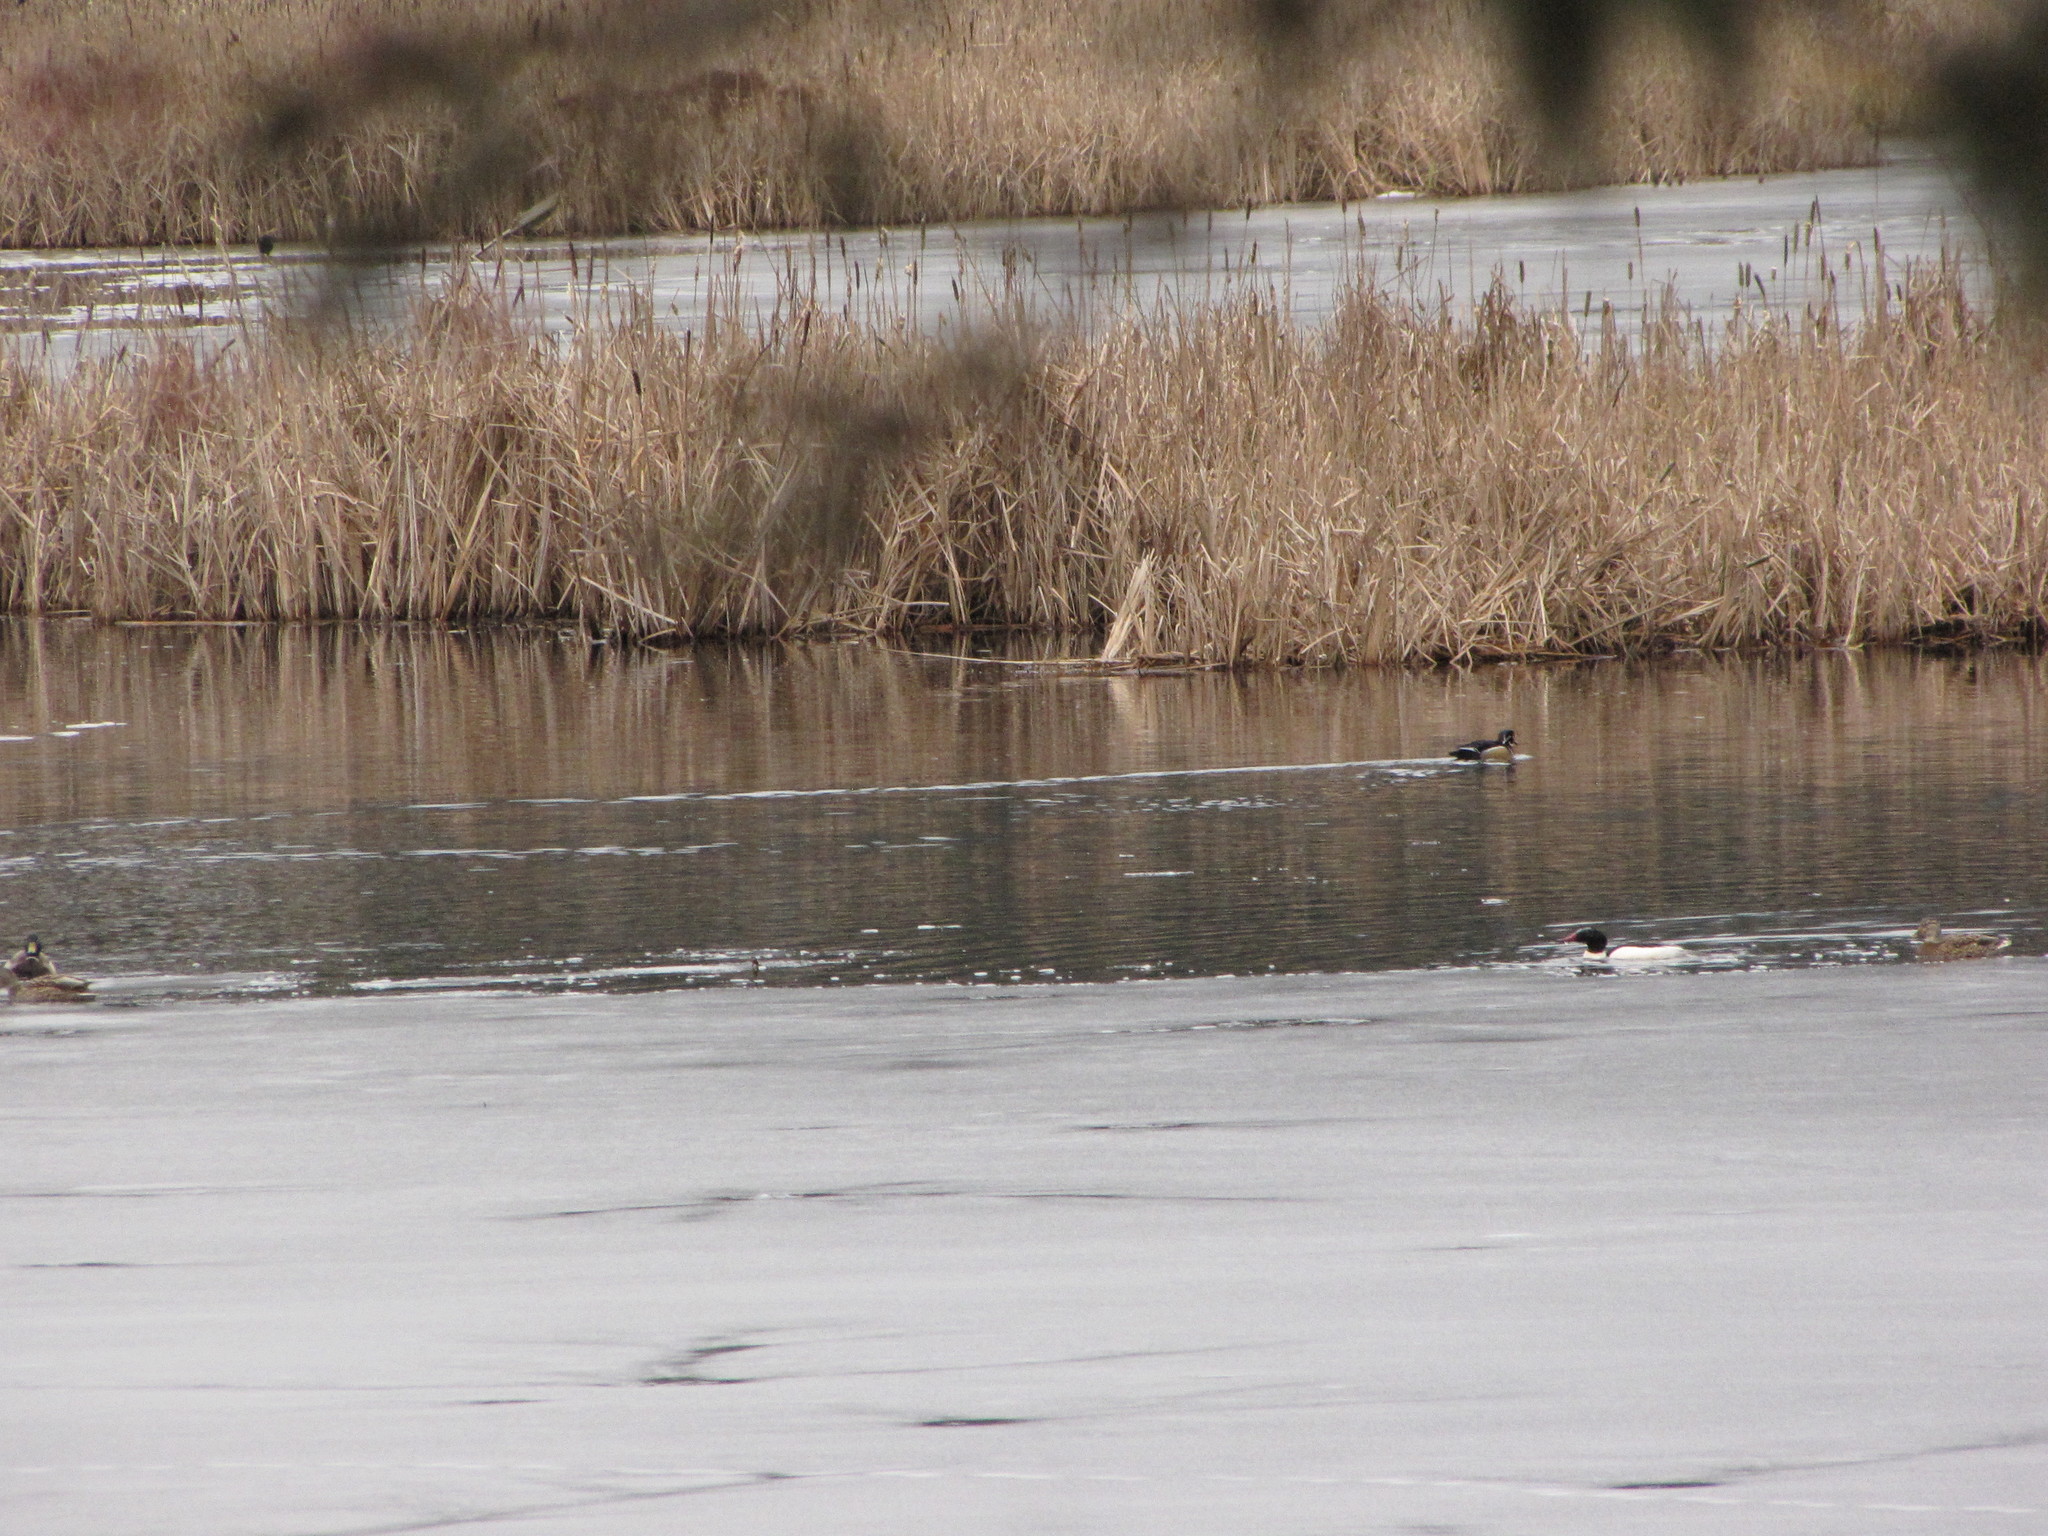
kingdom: Animalia
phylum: Chordata
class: Aves
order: Anseriformes
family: Anatidae
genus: Mergus
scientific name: Mergus merganser
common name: Common merganser
